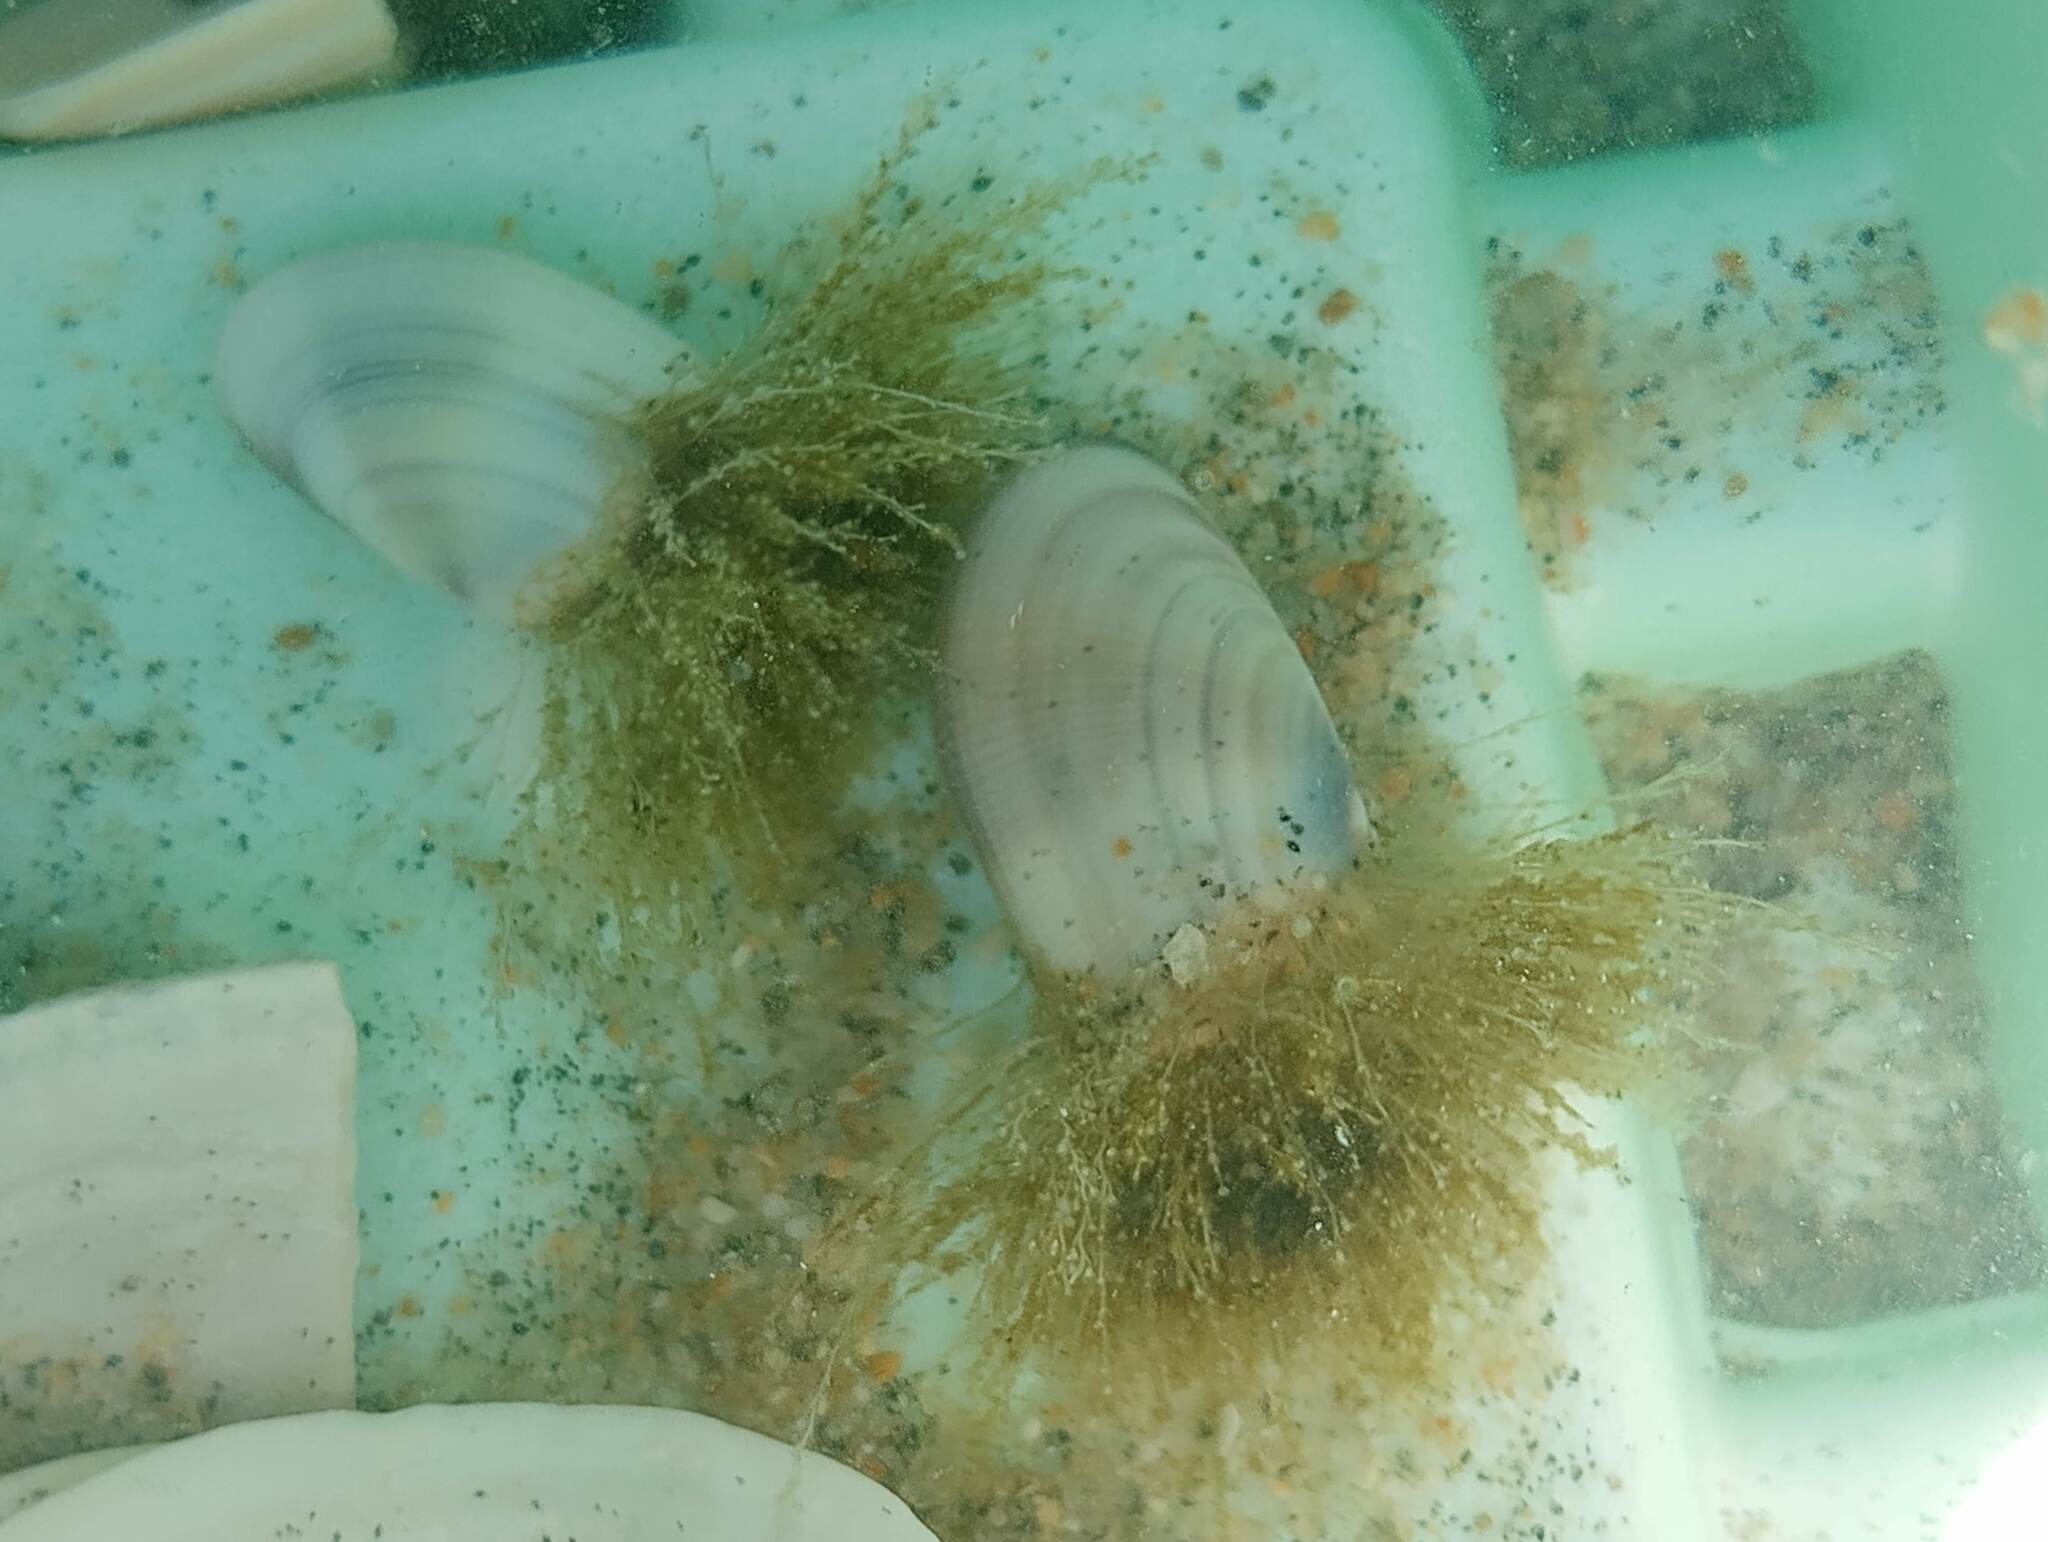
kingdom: Animalia
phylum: Cnidaria
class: Hydrozoa
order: Leptothecata
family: Lovenellidae
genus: Eucheilota
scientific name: Eucheilota bakeri
